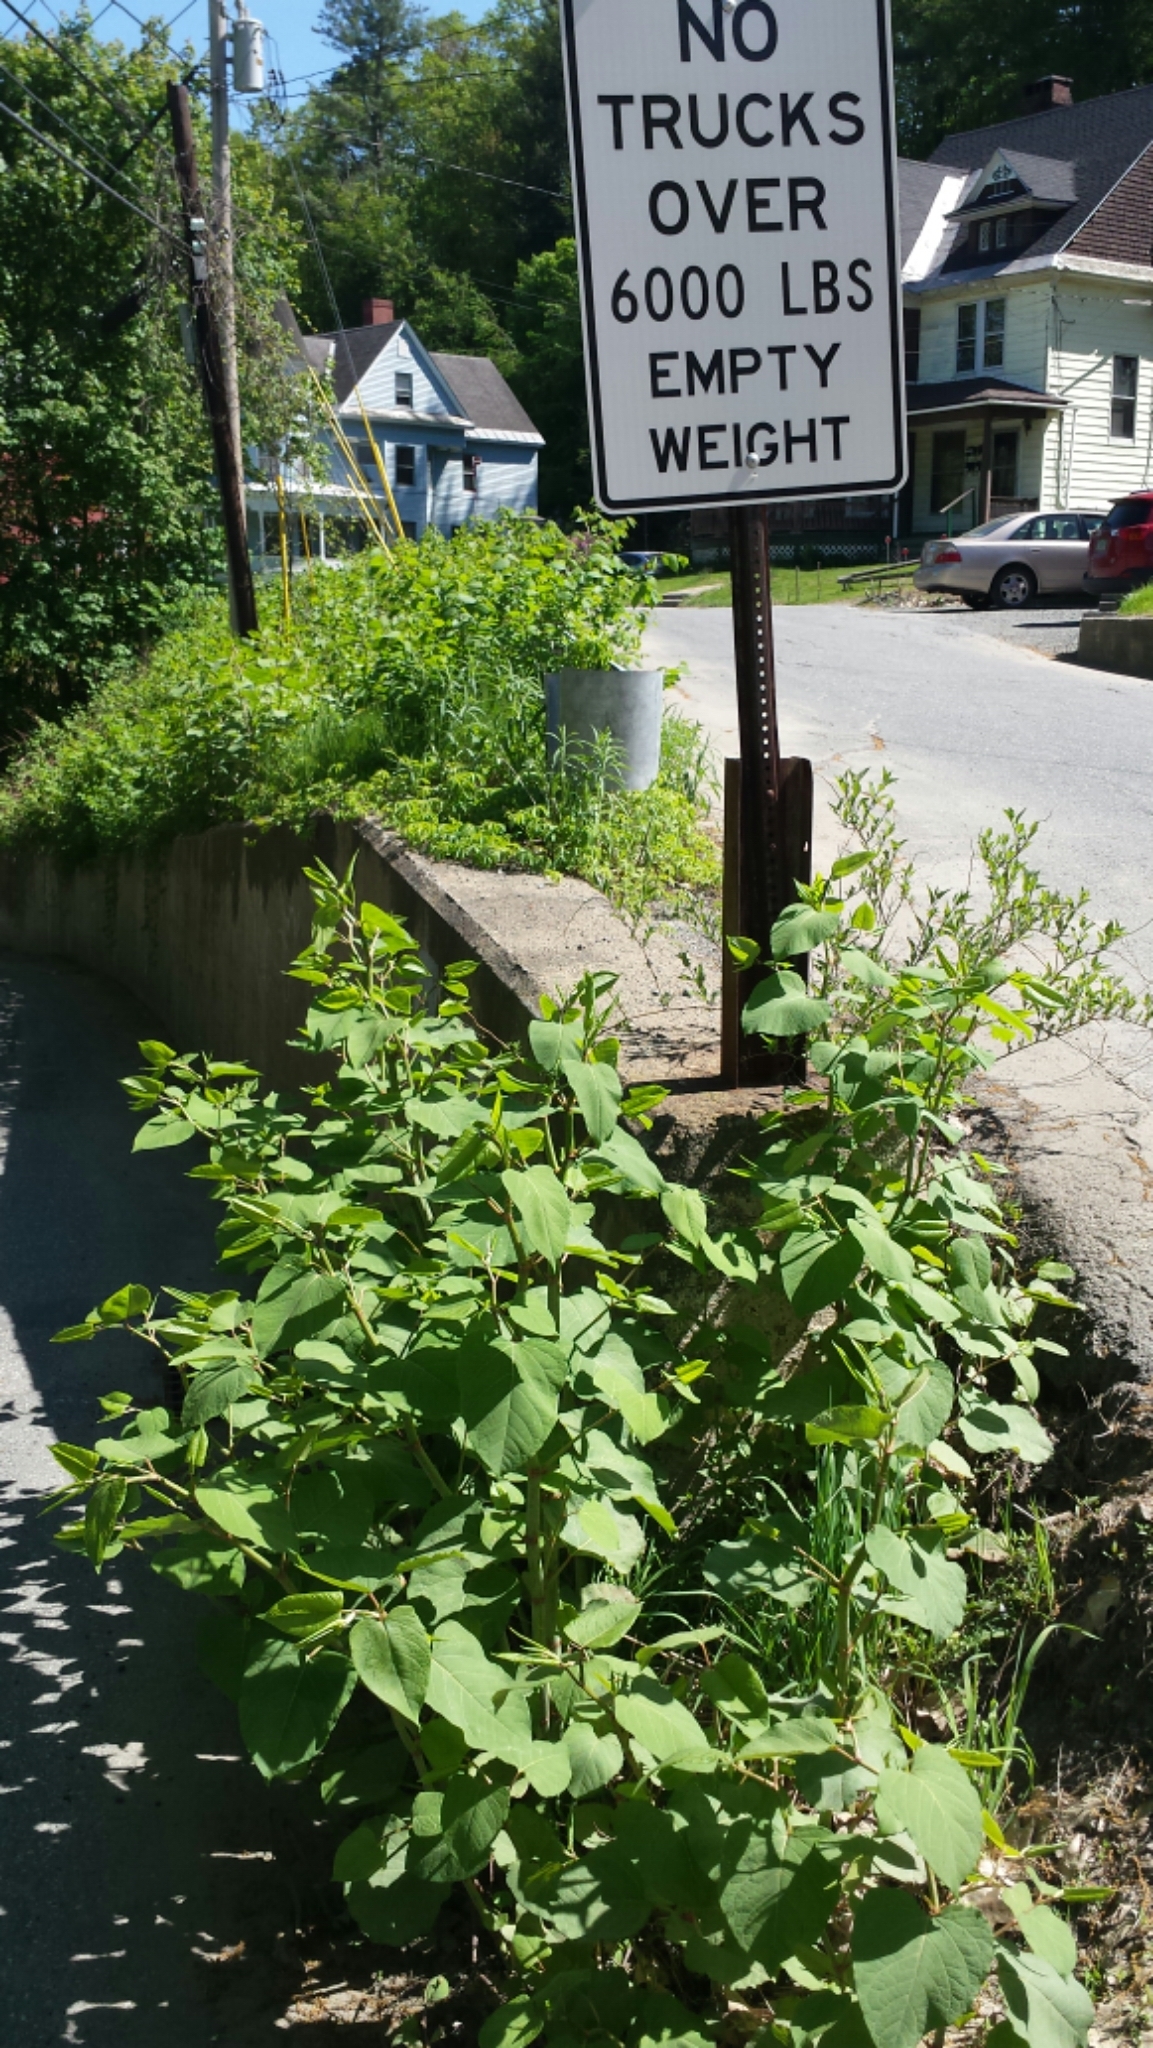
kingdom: Plantae
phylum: Tracheophyta
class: Magnoliopsida
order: Caryophyllales
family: Polygonaceae
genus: Reynoutria
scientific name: Reynoutria japonica
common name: Japanese knotweed
